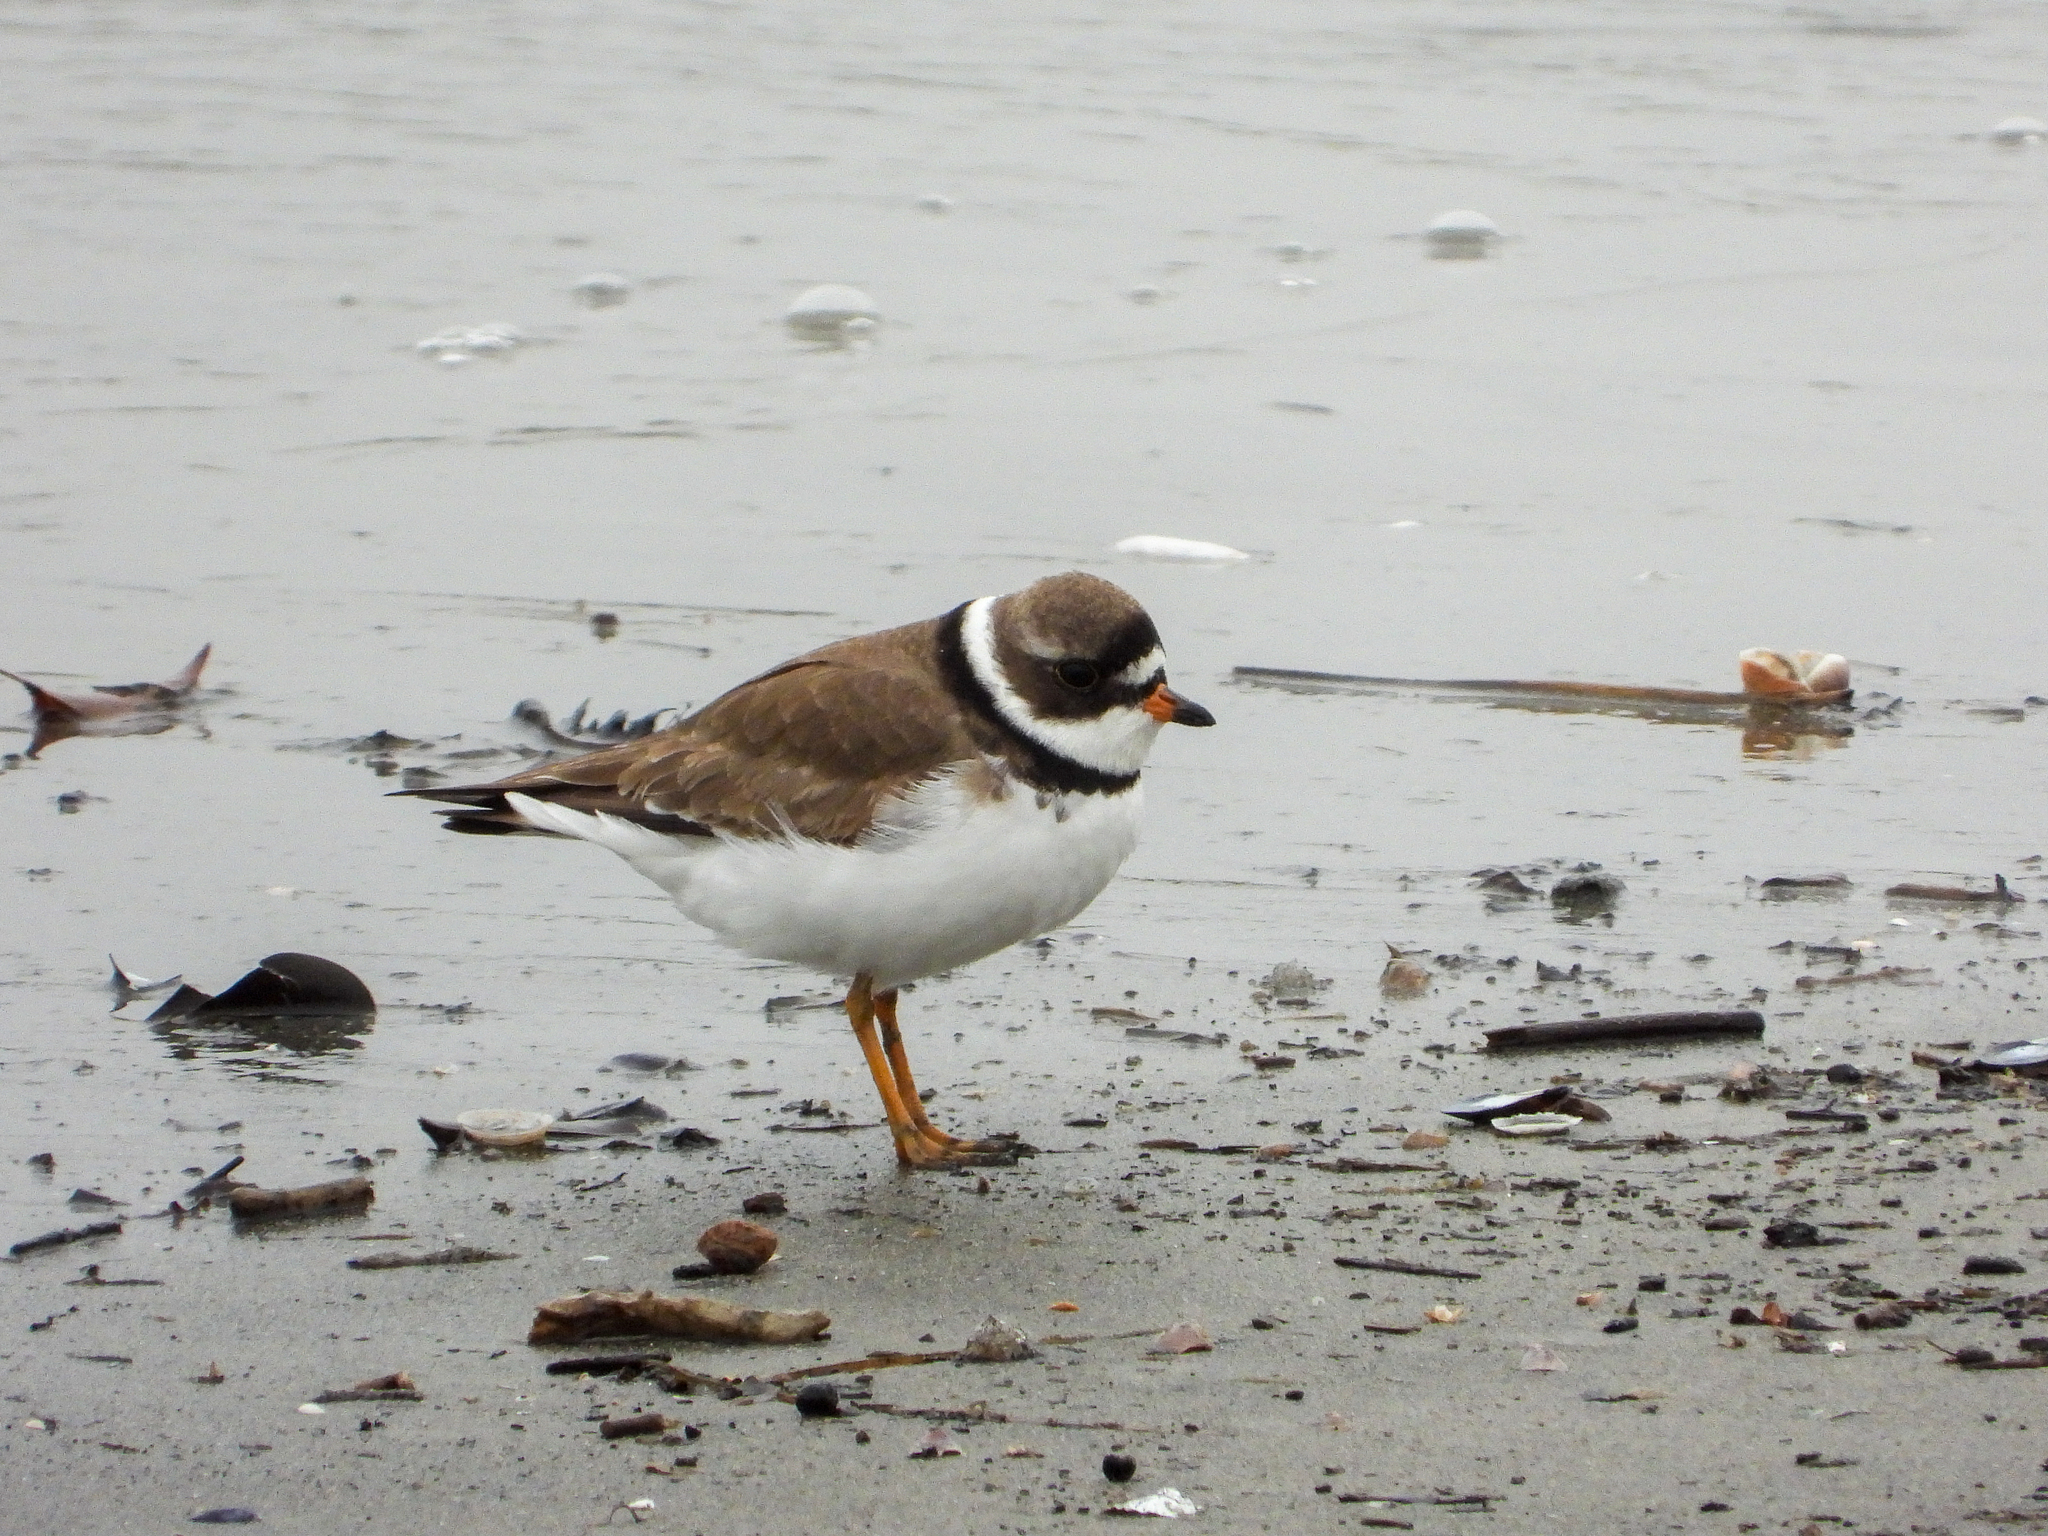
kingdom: Animalia
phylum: Chordata
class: Aves
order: Charadriiformes
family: Charadriidae
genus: Charadrius
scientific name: Charadrius semipalmatus
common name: Semipalmated plover
